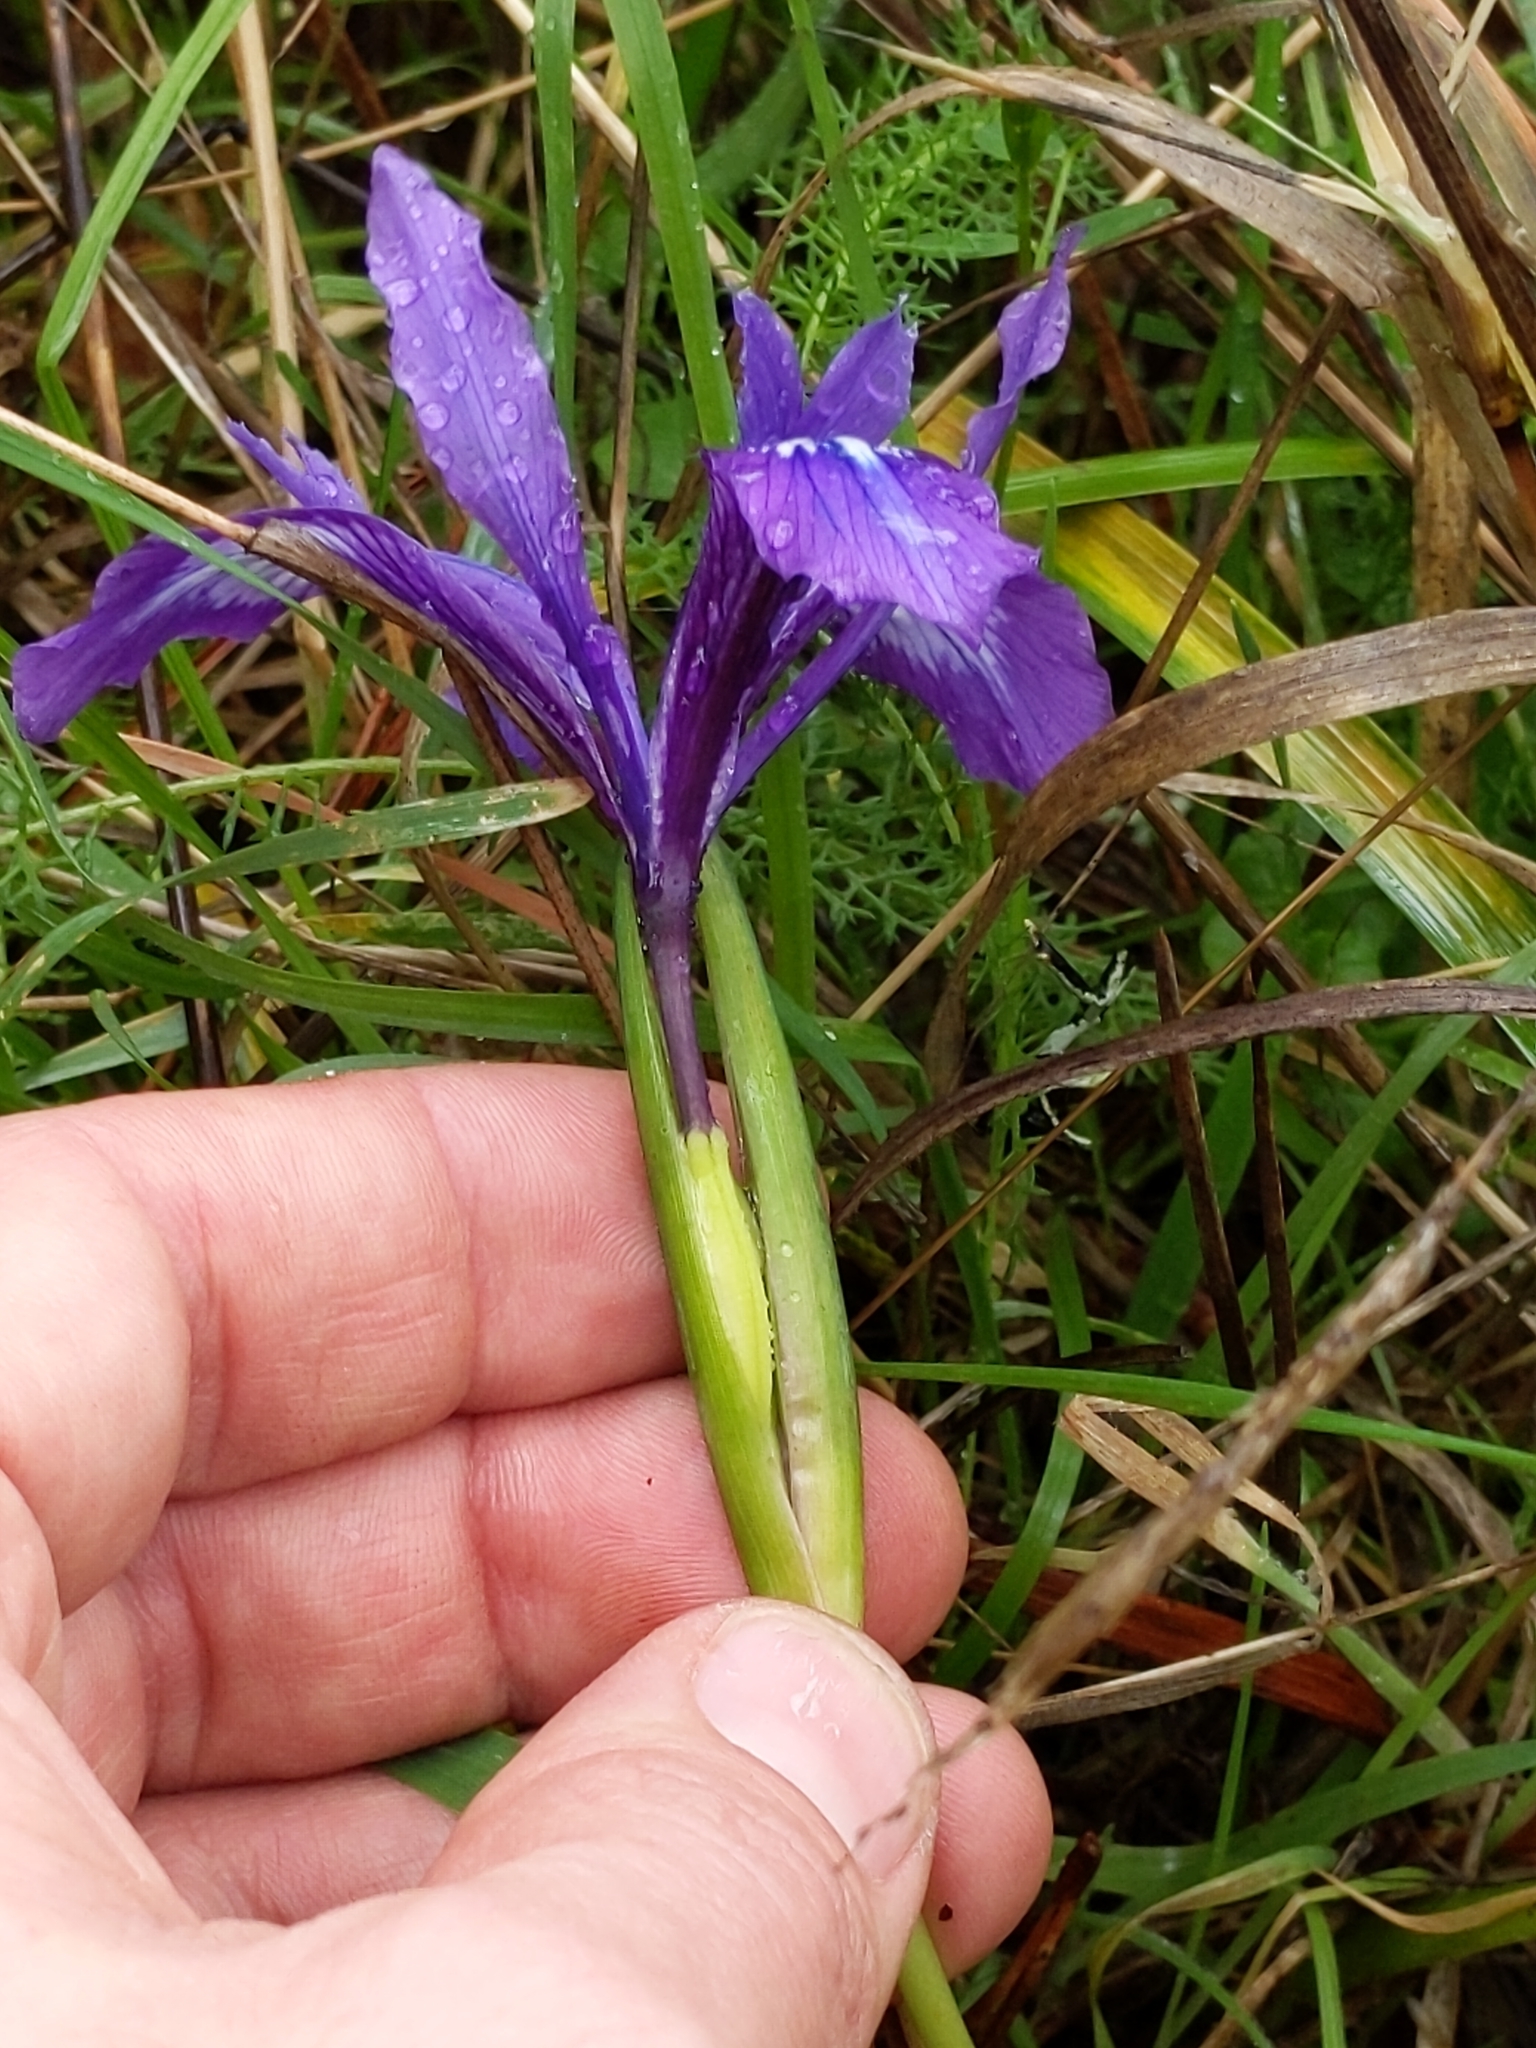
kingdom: Plantae
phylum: Tracheophyta
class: Liliopsida
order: Asparagales
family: Iridaceae
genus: Iris
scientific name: Iris douglasiana
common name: Marin iris
